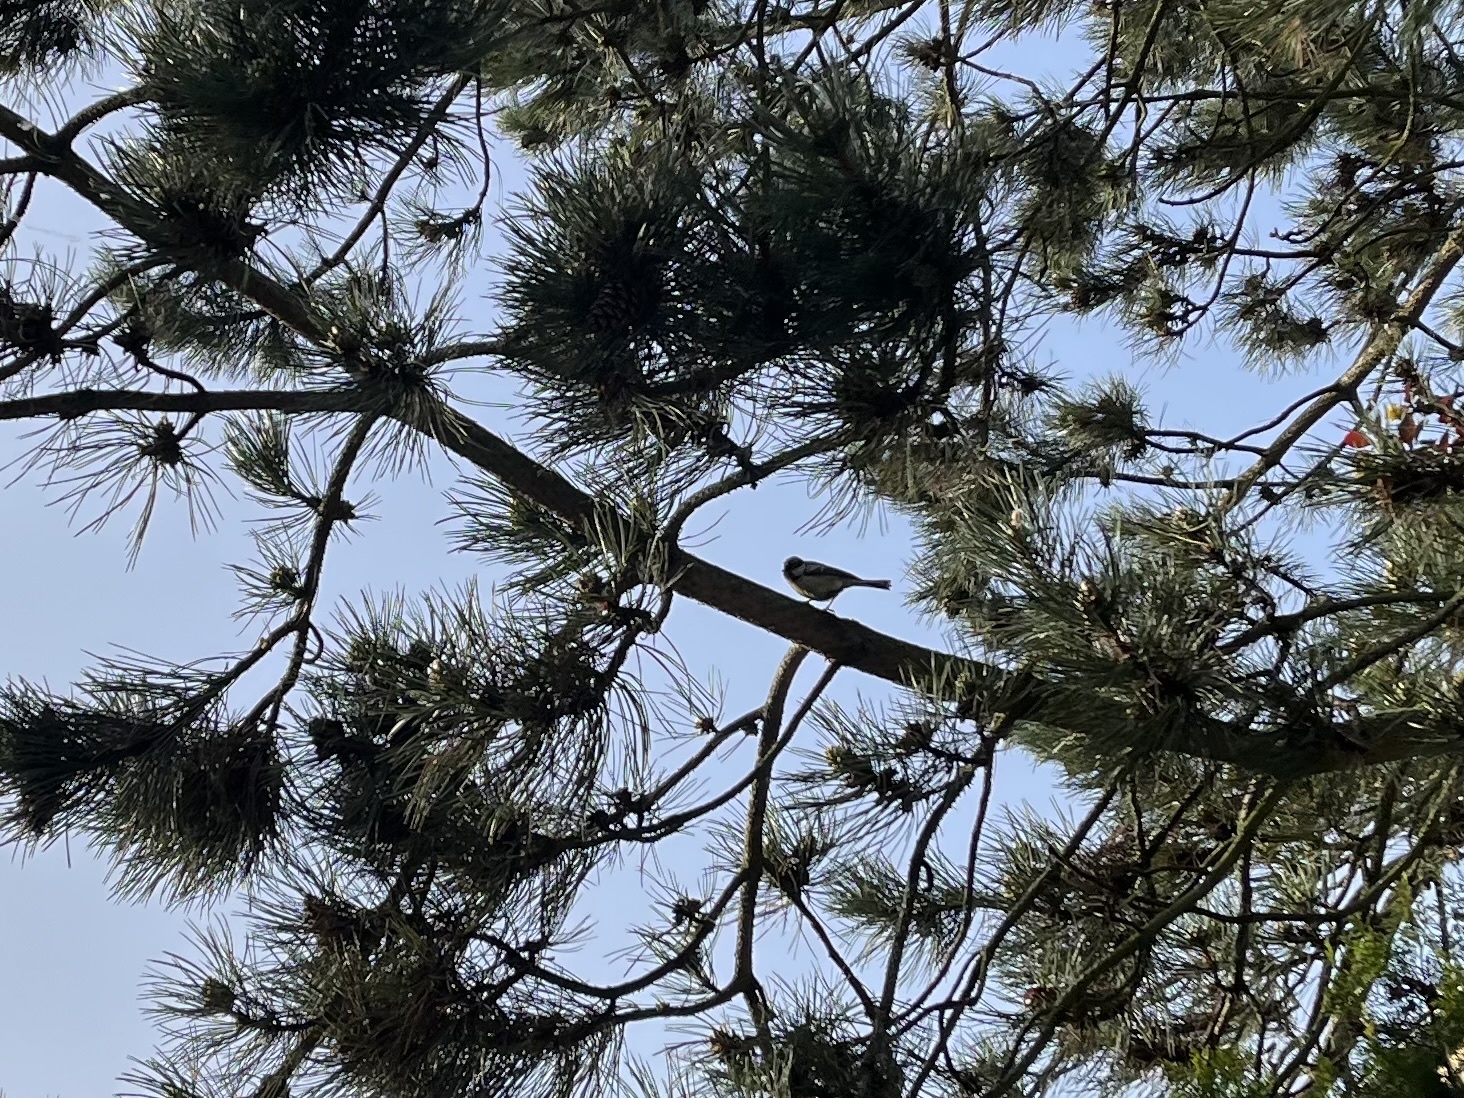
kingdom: Animalia
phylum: Chordata
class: Aves
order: Passeriformes
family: Paridae
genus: Parus
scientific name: Parus major
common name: Great tit
